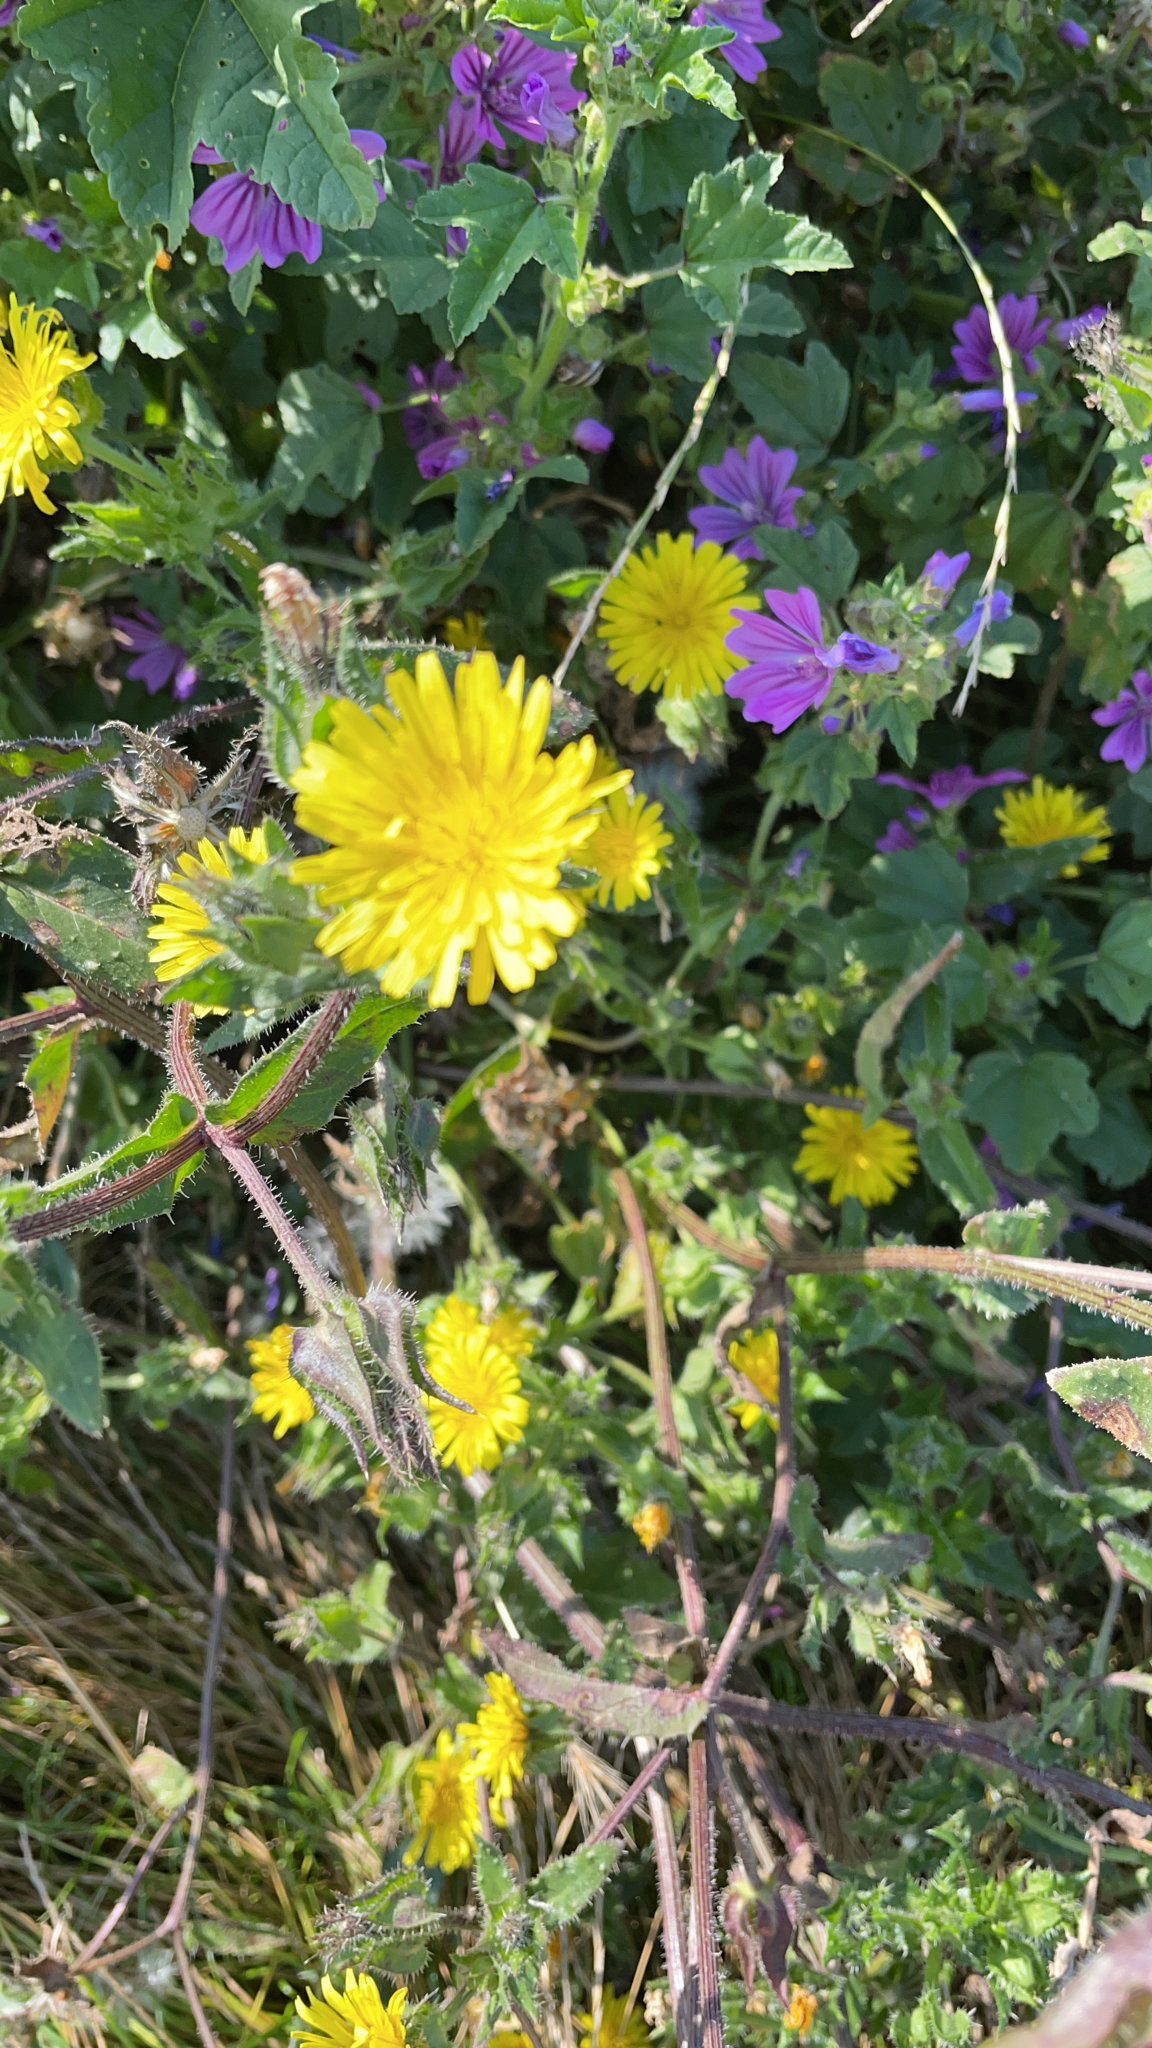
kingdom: Plantae
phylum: Tracheophyta
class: Magnoliopsida
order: Asterales
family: Asteraceae
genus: Helminthotheca
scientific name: Helminthotheca echioides
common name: Ox-tongue
